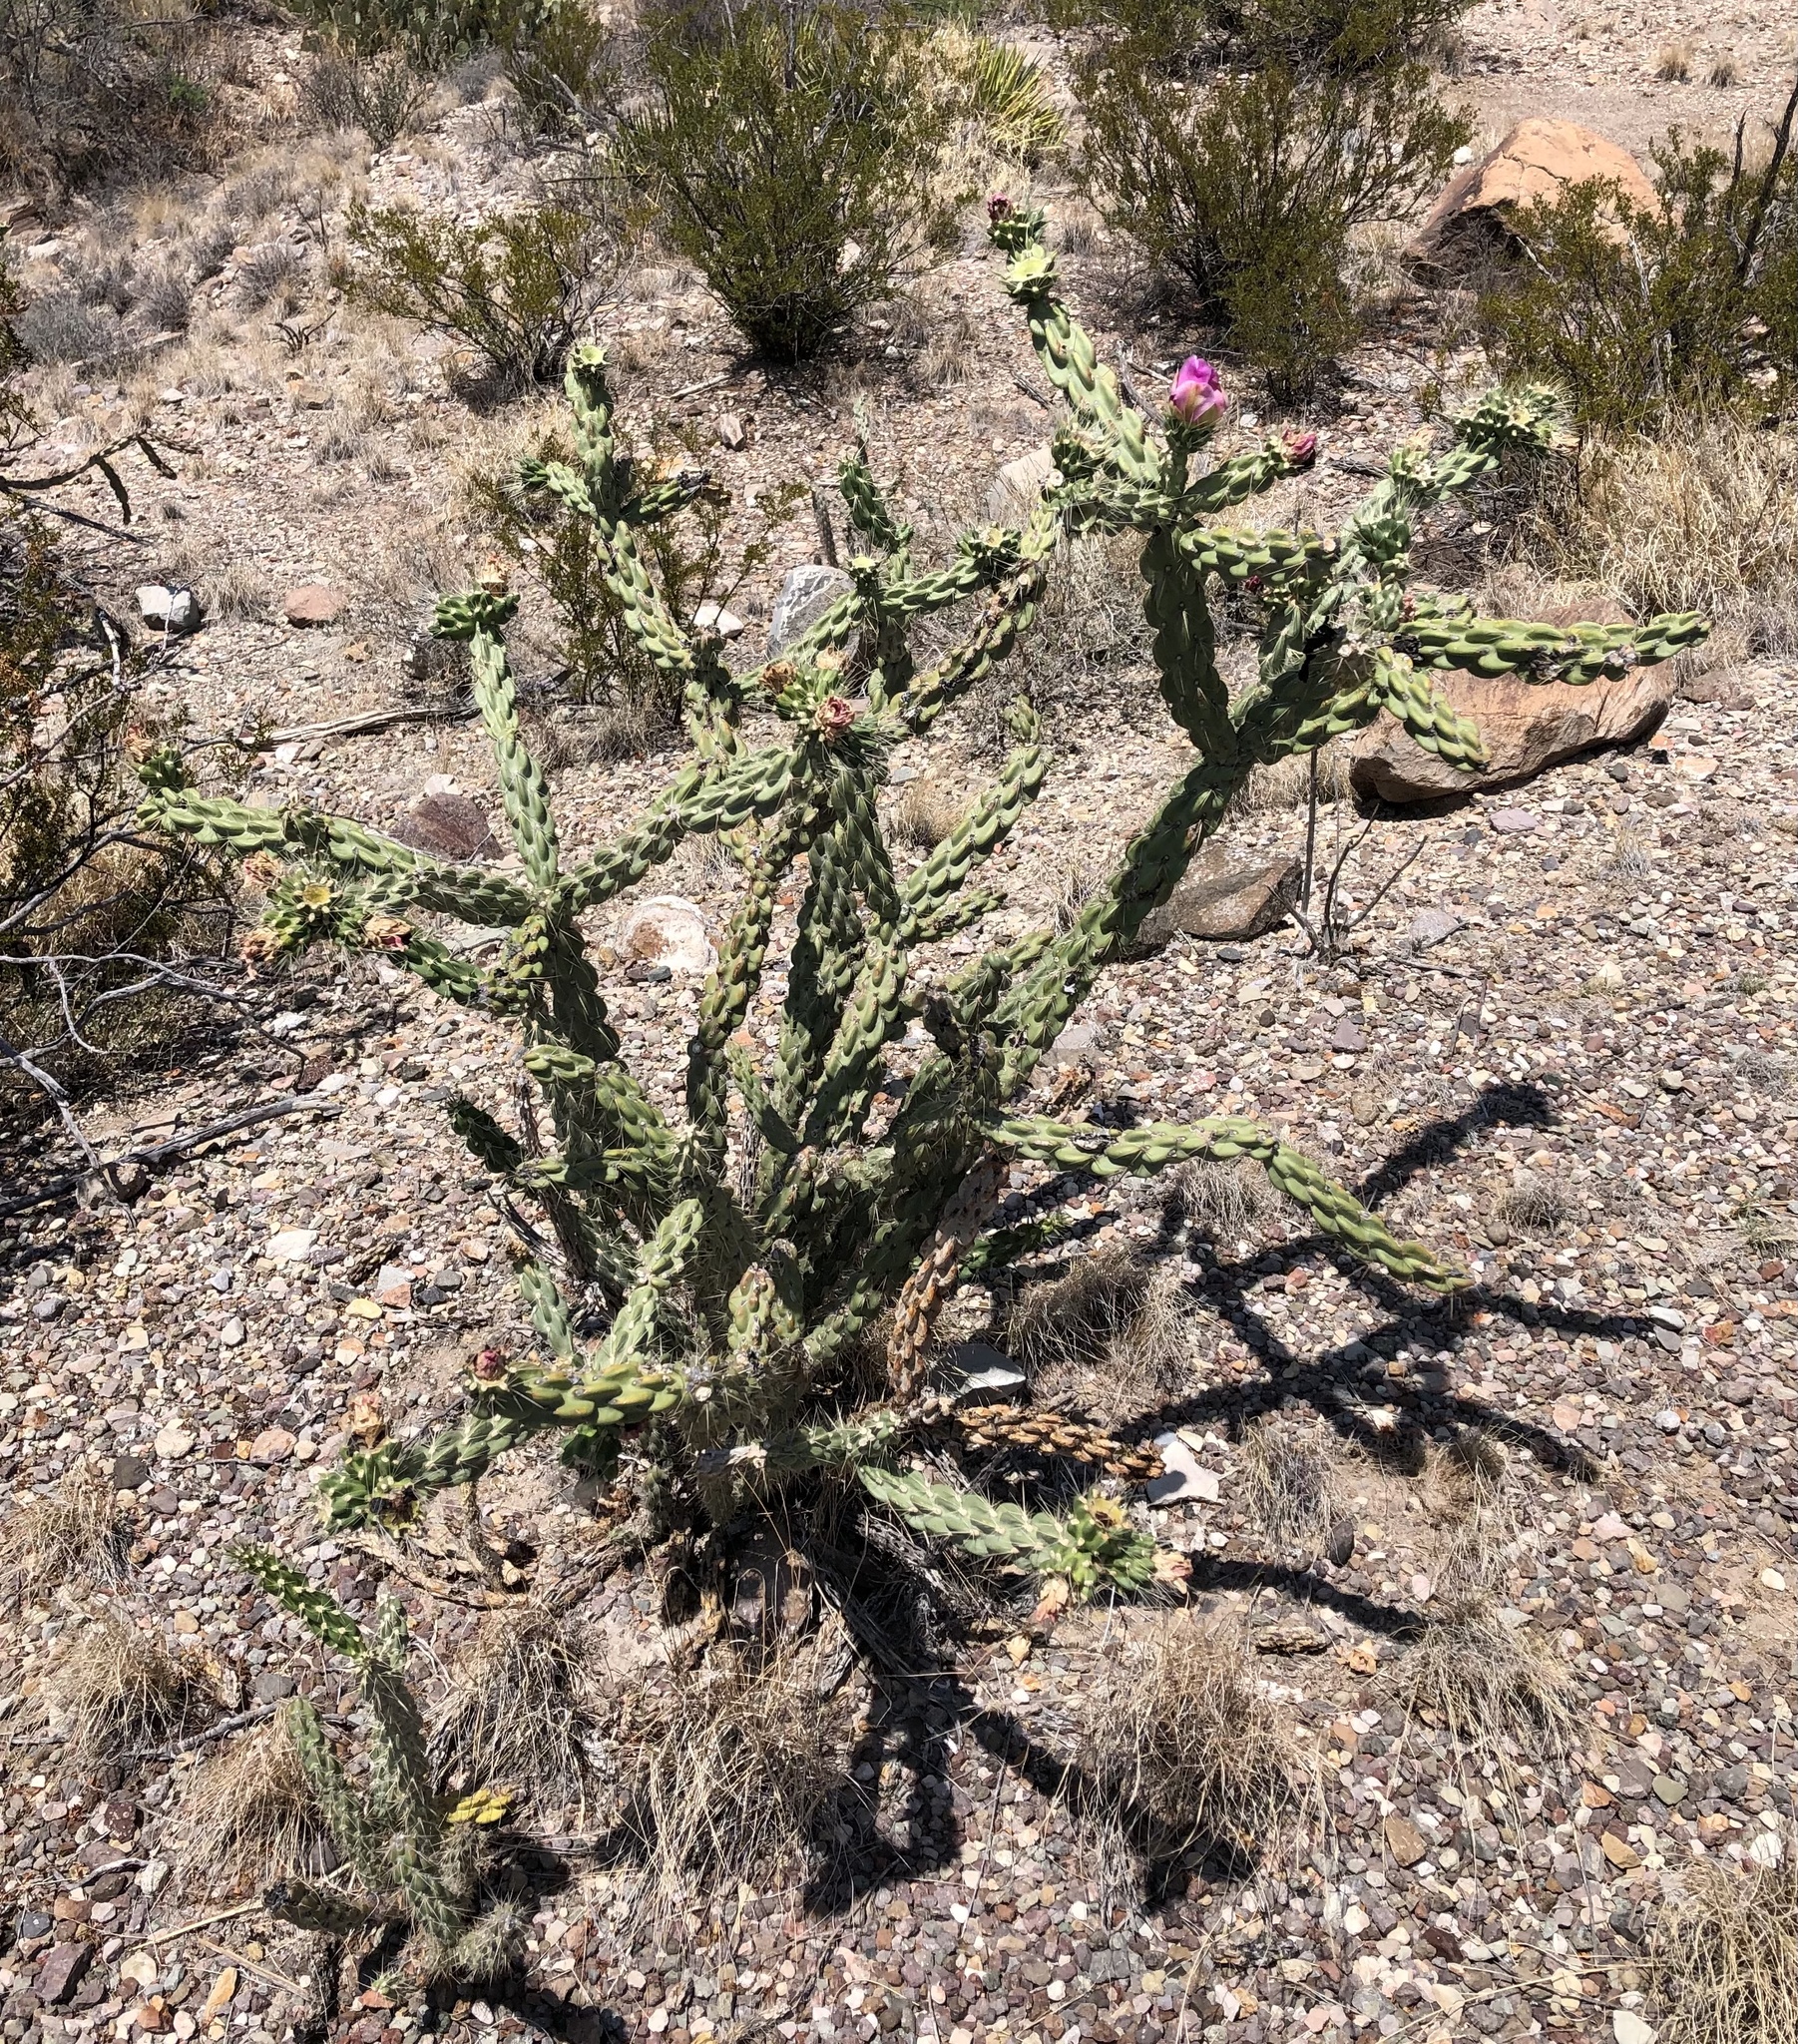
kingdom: Plantae
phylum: Tracheophyta
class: Magnoliopsida
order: Caryophyllales
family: Cactaceae
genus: Cylindropuntia
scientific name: Cylindropuntia imbricata
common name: Candelabrum cactus
